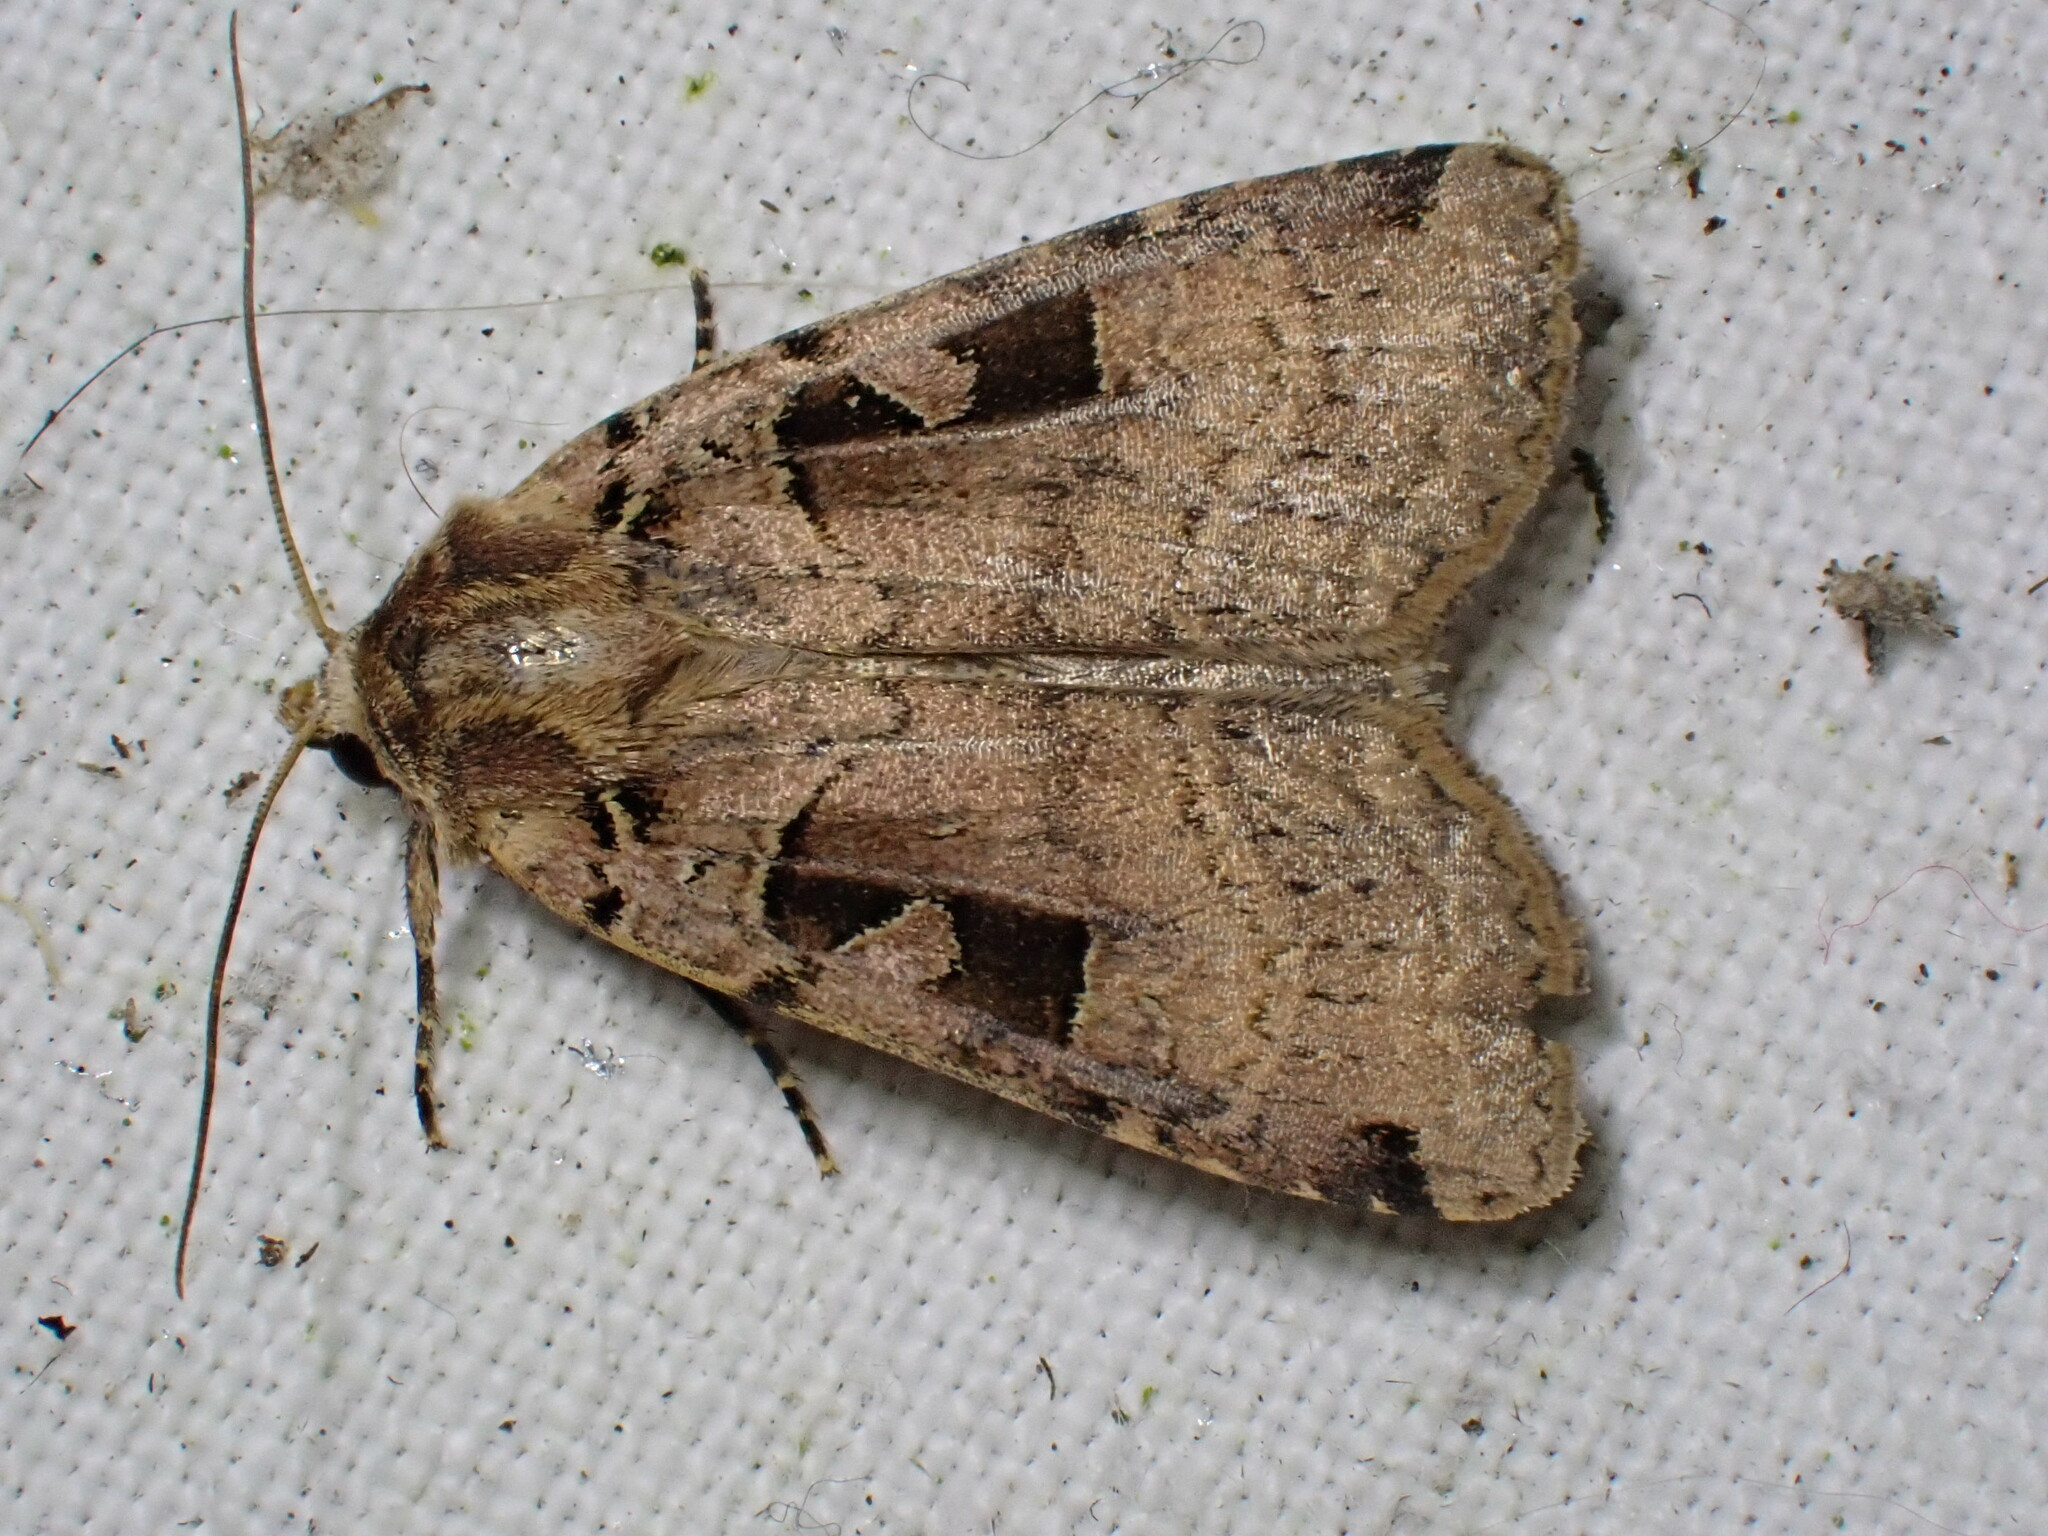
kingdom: Animalia
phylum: Arthropoda
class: Insecta
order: Lepidoptera
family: Noctuidae
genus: Xestia
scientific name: Xestia triangulum
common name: Double square-spot
